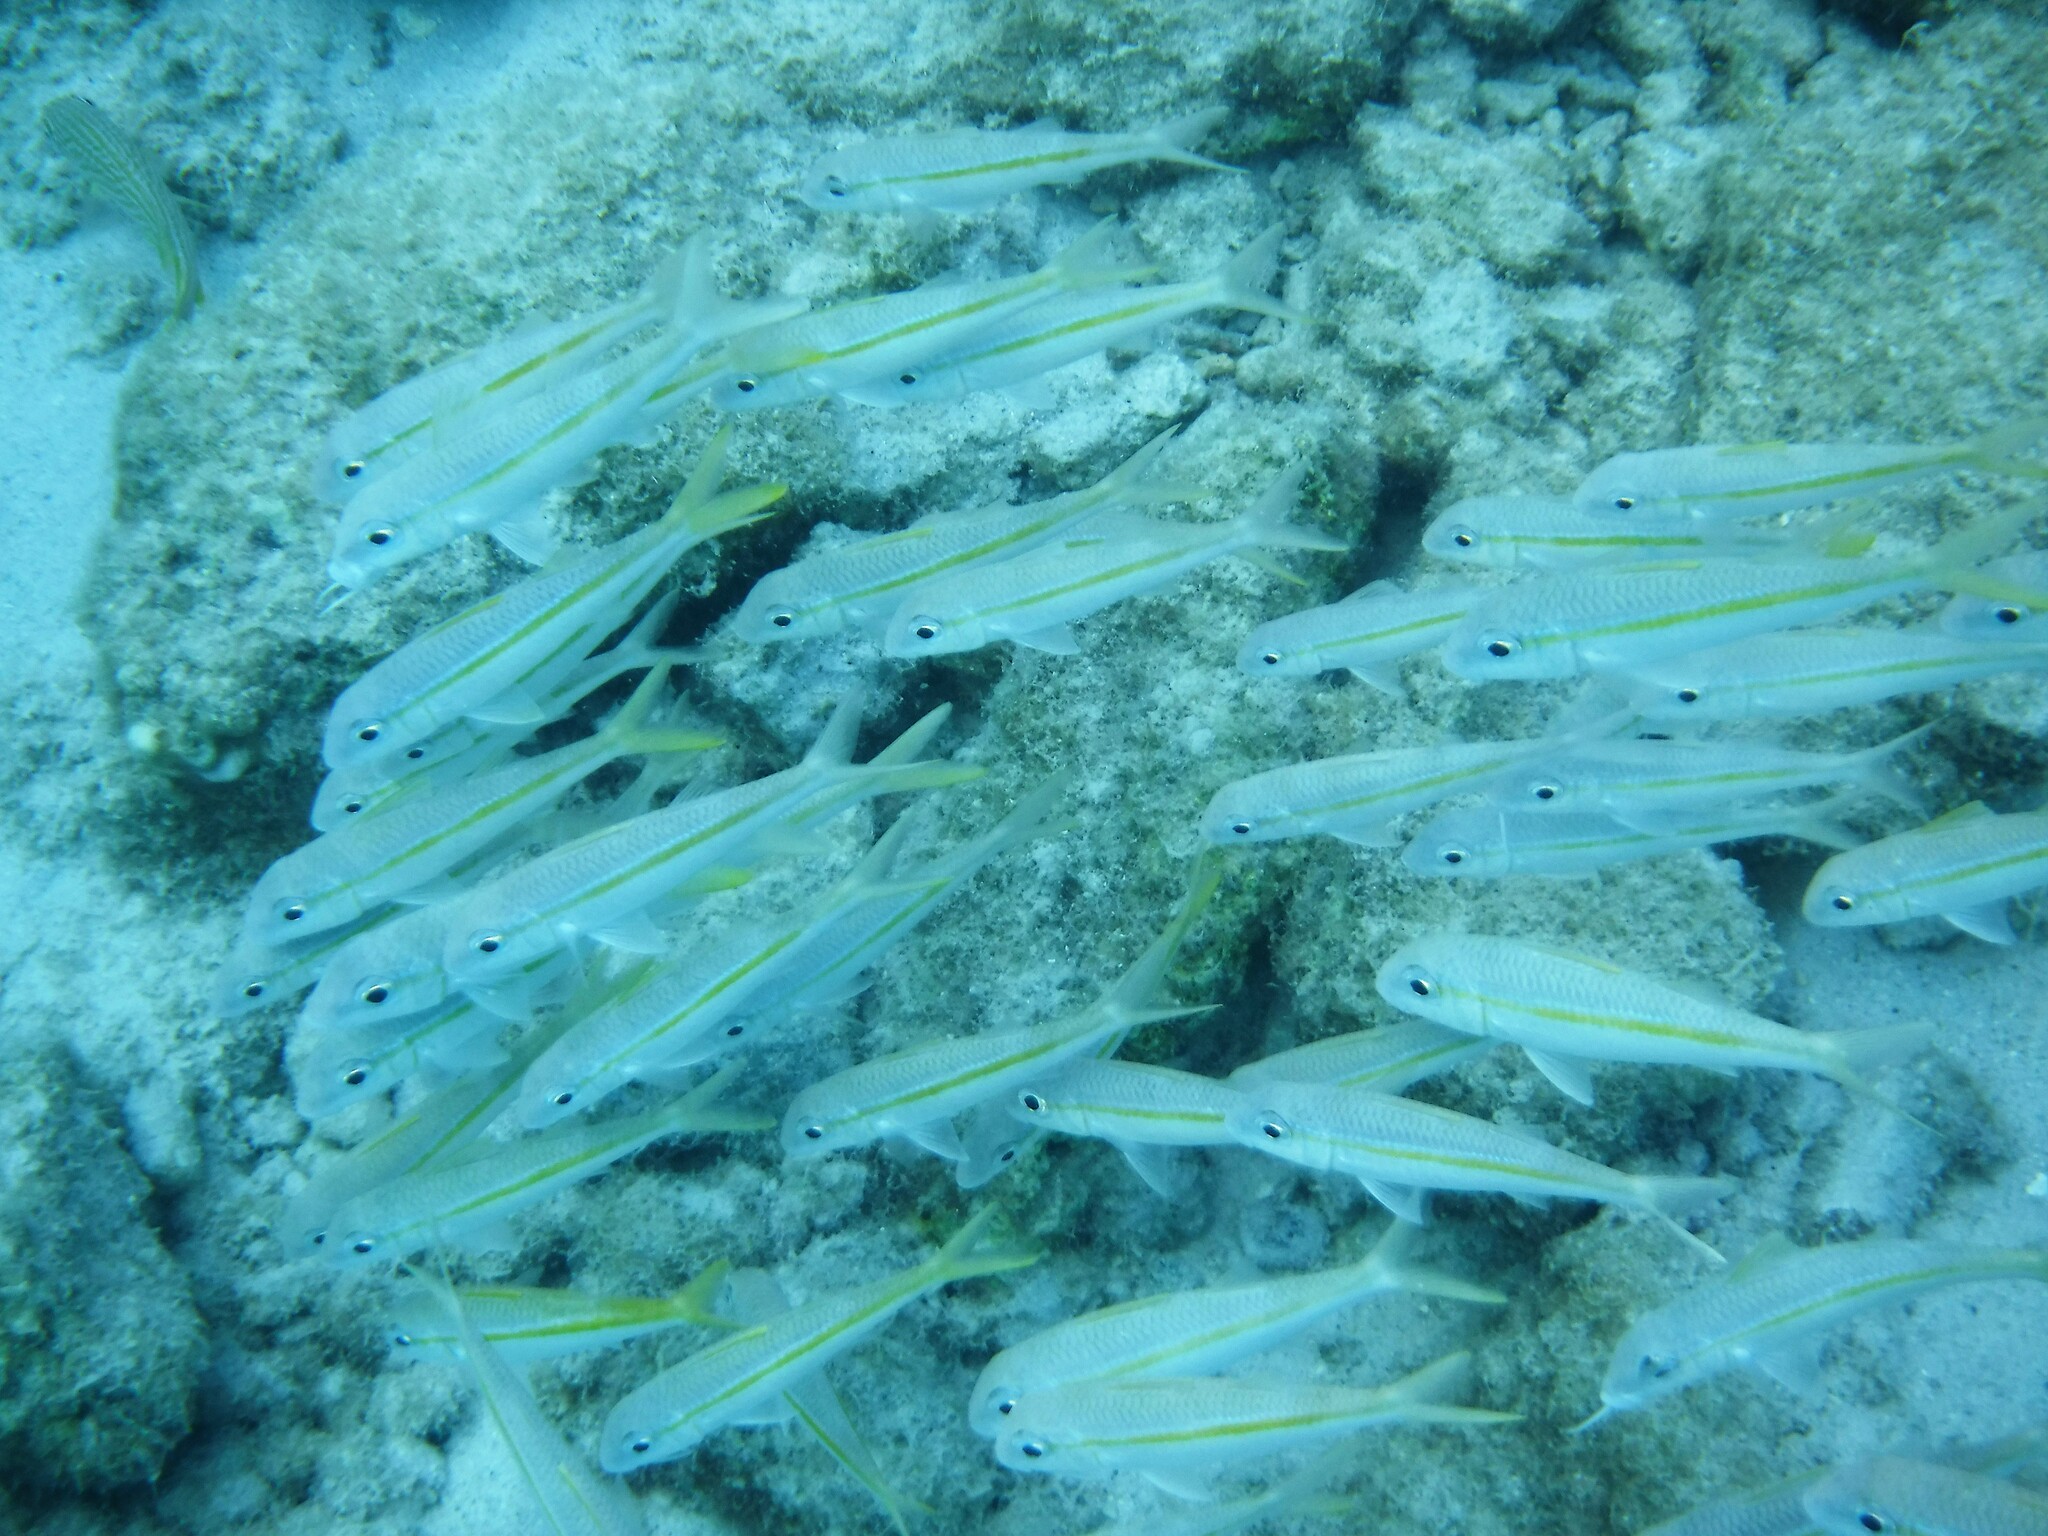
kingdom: Animalia
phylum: Chordata
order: Perciformes
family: Mullidae
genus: Mulloidichthys
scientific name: Mulloidichthys martinicus
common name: Yellow goatfish
